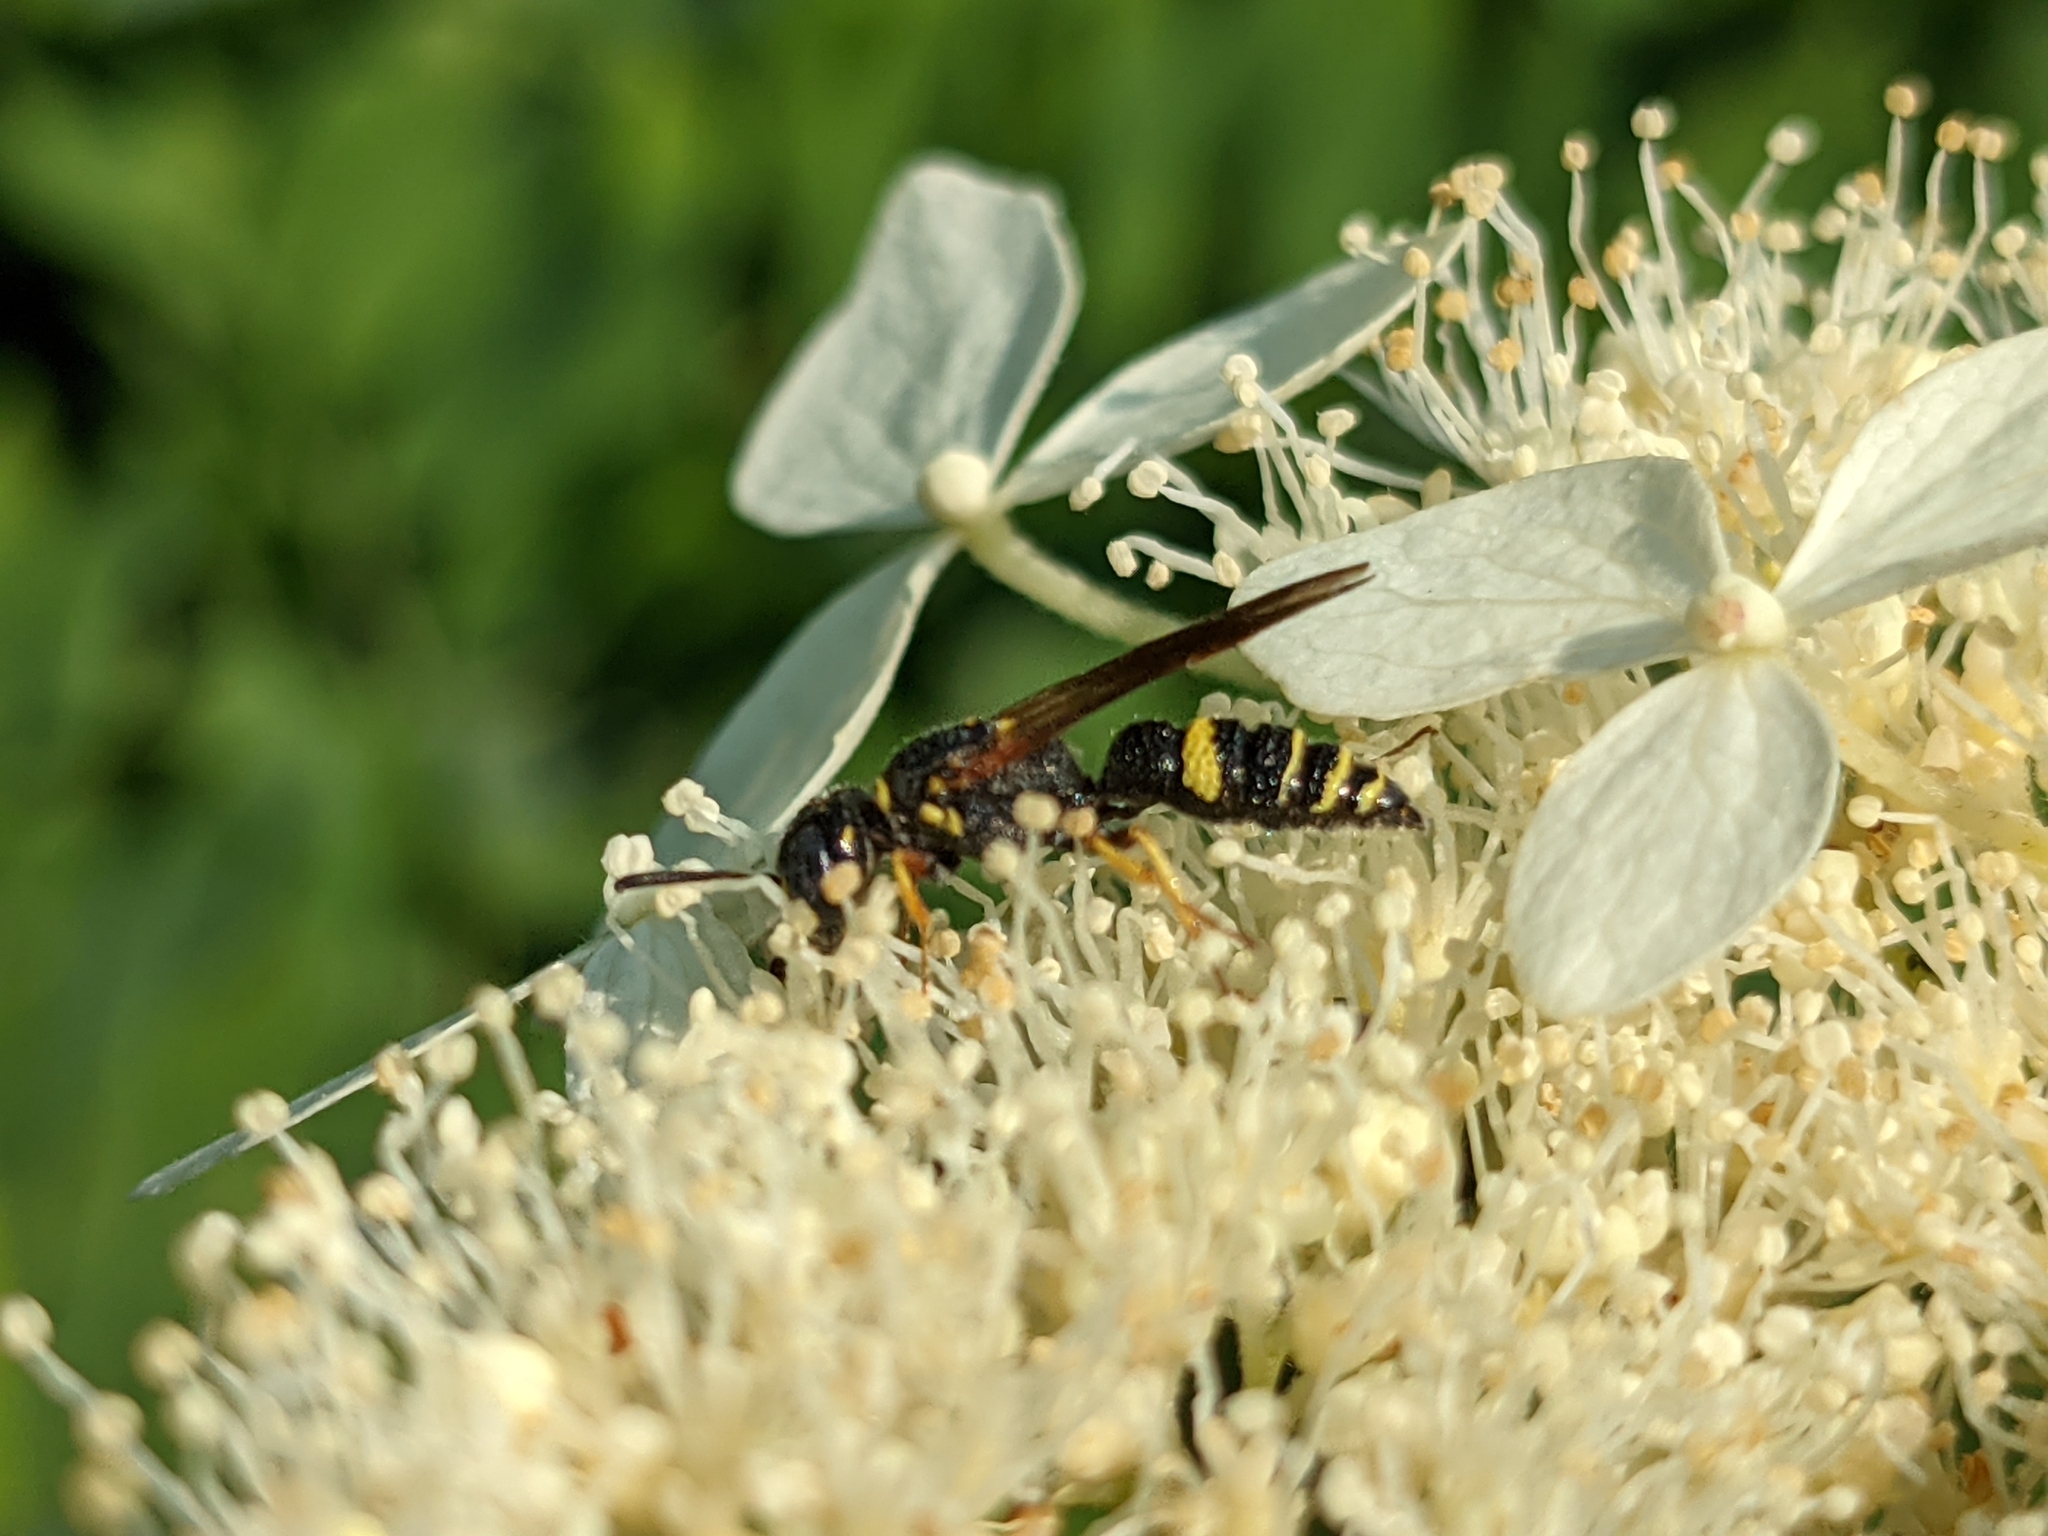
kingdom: Animalia
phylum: Arthropoda
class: Insecta
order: Hymenoptera
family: Crabronidae
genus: Philanthus
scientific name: Philanthus gibbosus
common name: Humped beewolf
